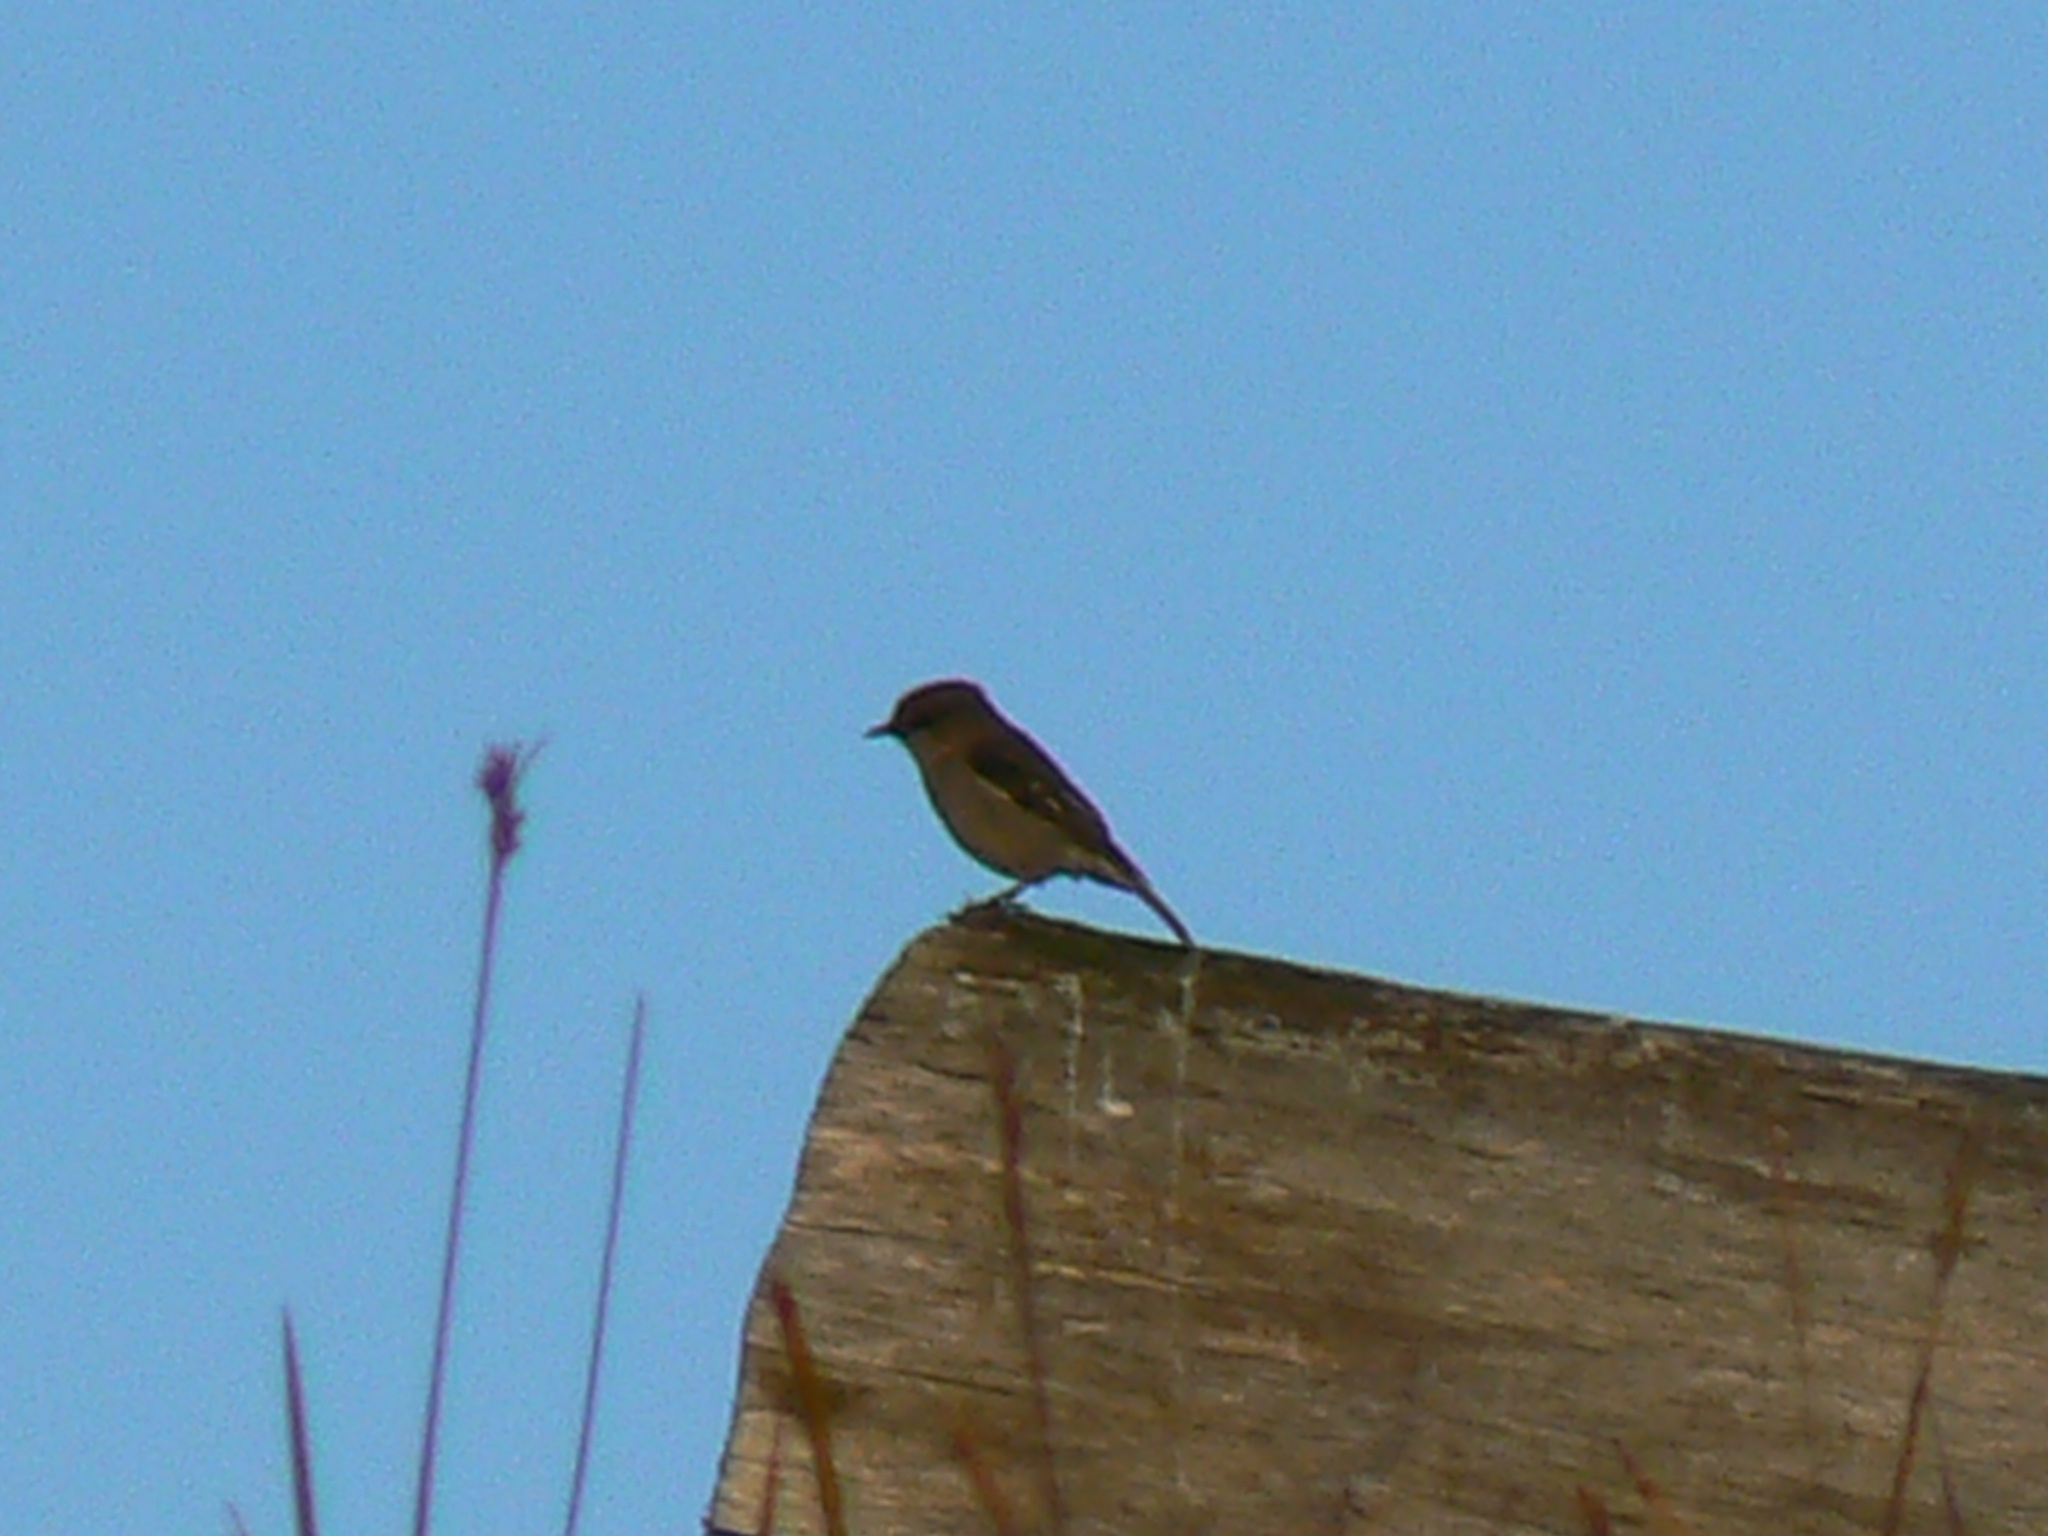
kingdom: Animalia
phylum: Chordata
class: Aves
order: Passeriformes
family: Petroicidae
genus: Melanodryas
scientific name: Melanodryas vittata
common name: Dusky robin
